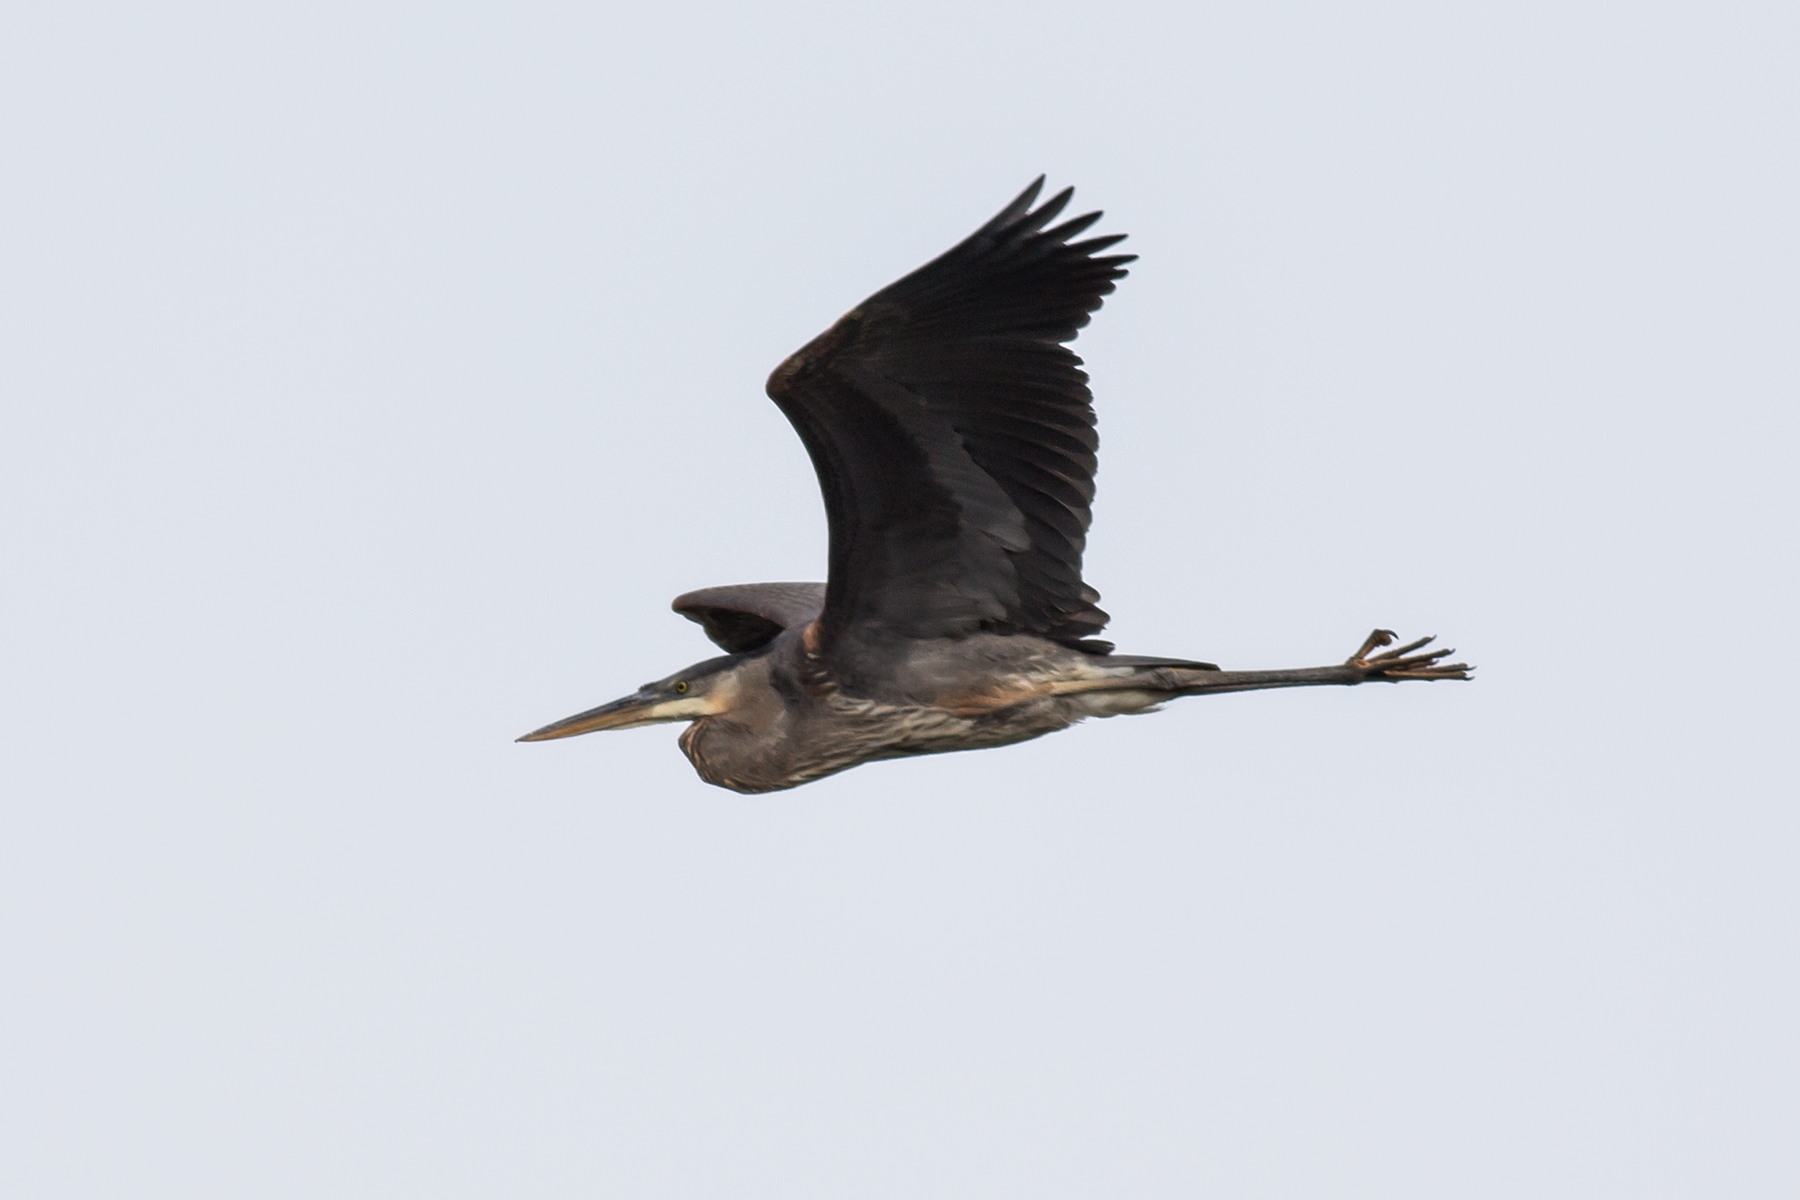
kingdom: Animalia
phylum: Chordata
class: Aves
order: Pelecaniformes
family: Ardeidae
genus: Ardea
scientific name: Ardea herodias
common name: Great blue heron
